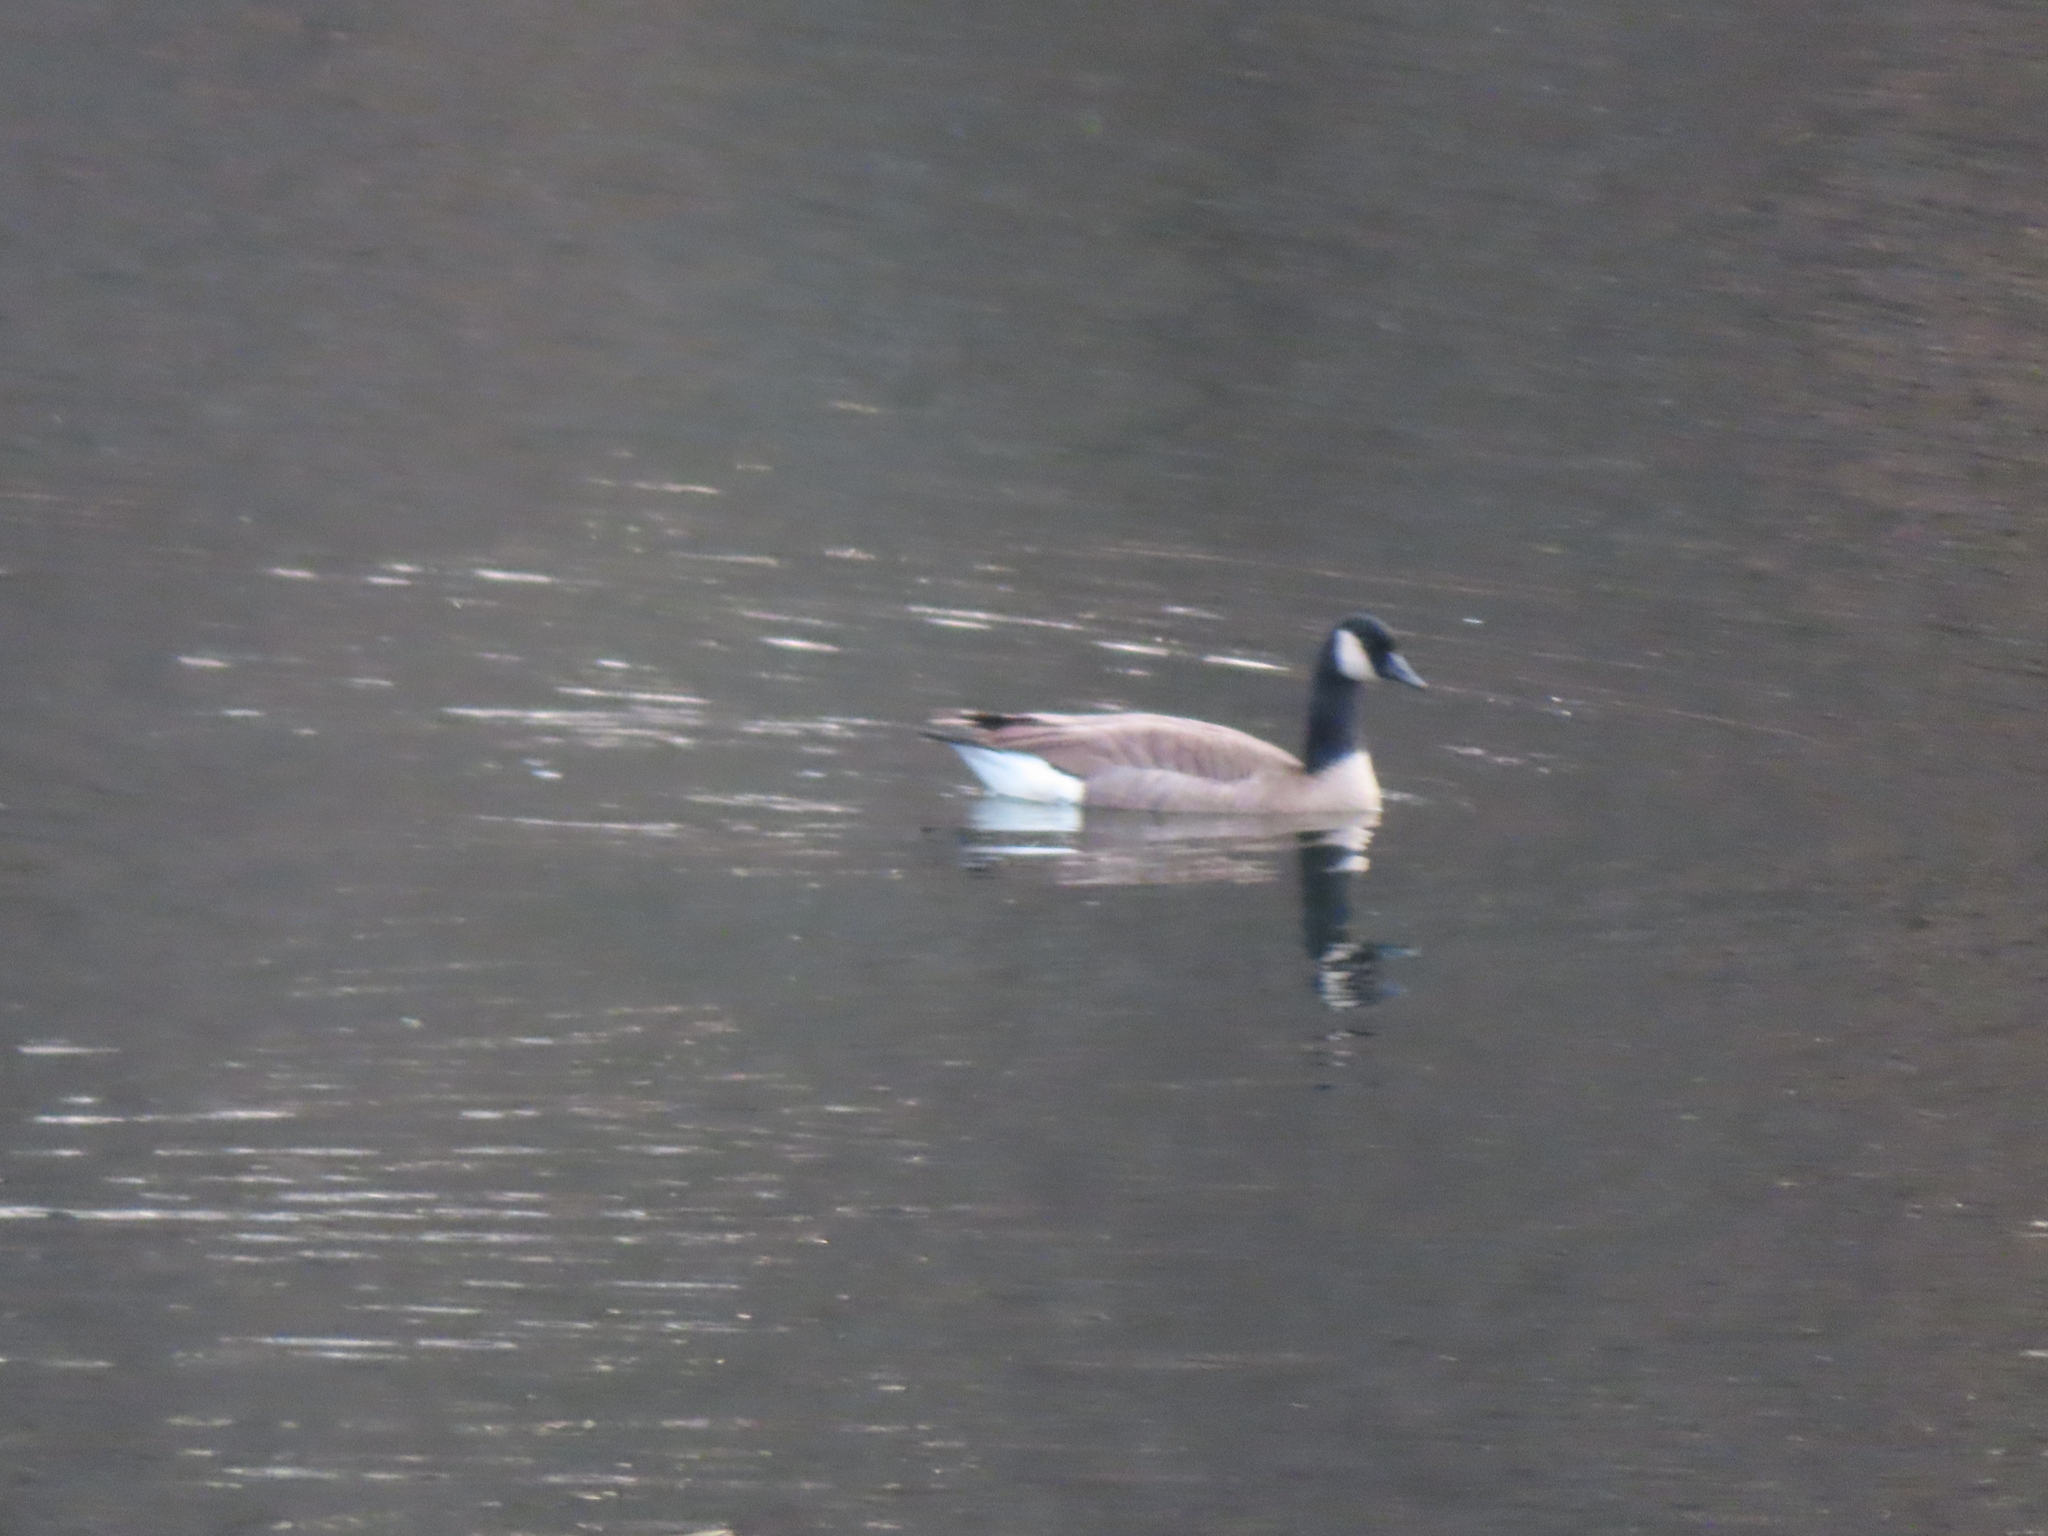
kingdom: Animalia
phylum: Chordata
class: Aves
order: Anseriformes
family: Anatidae
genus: Branta
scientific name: Branta canadensis
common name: Canada goose
